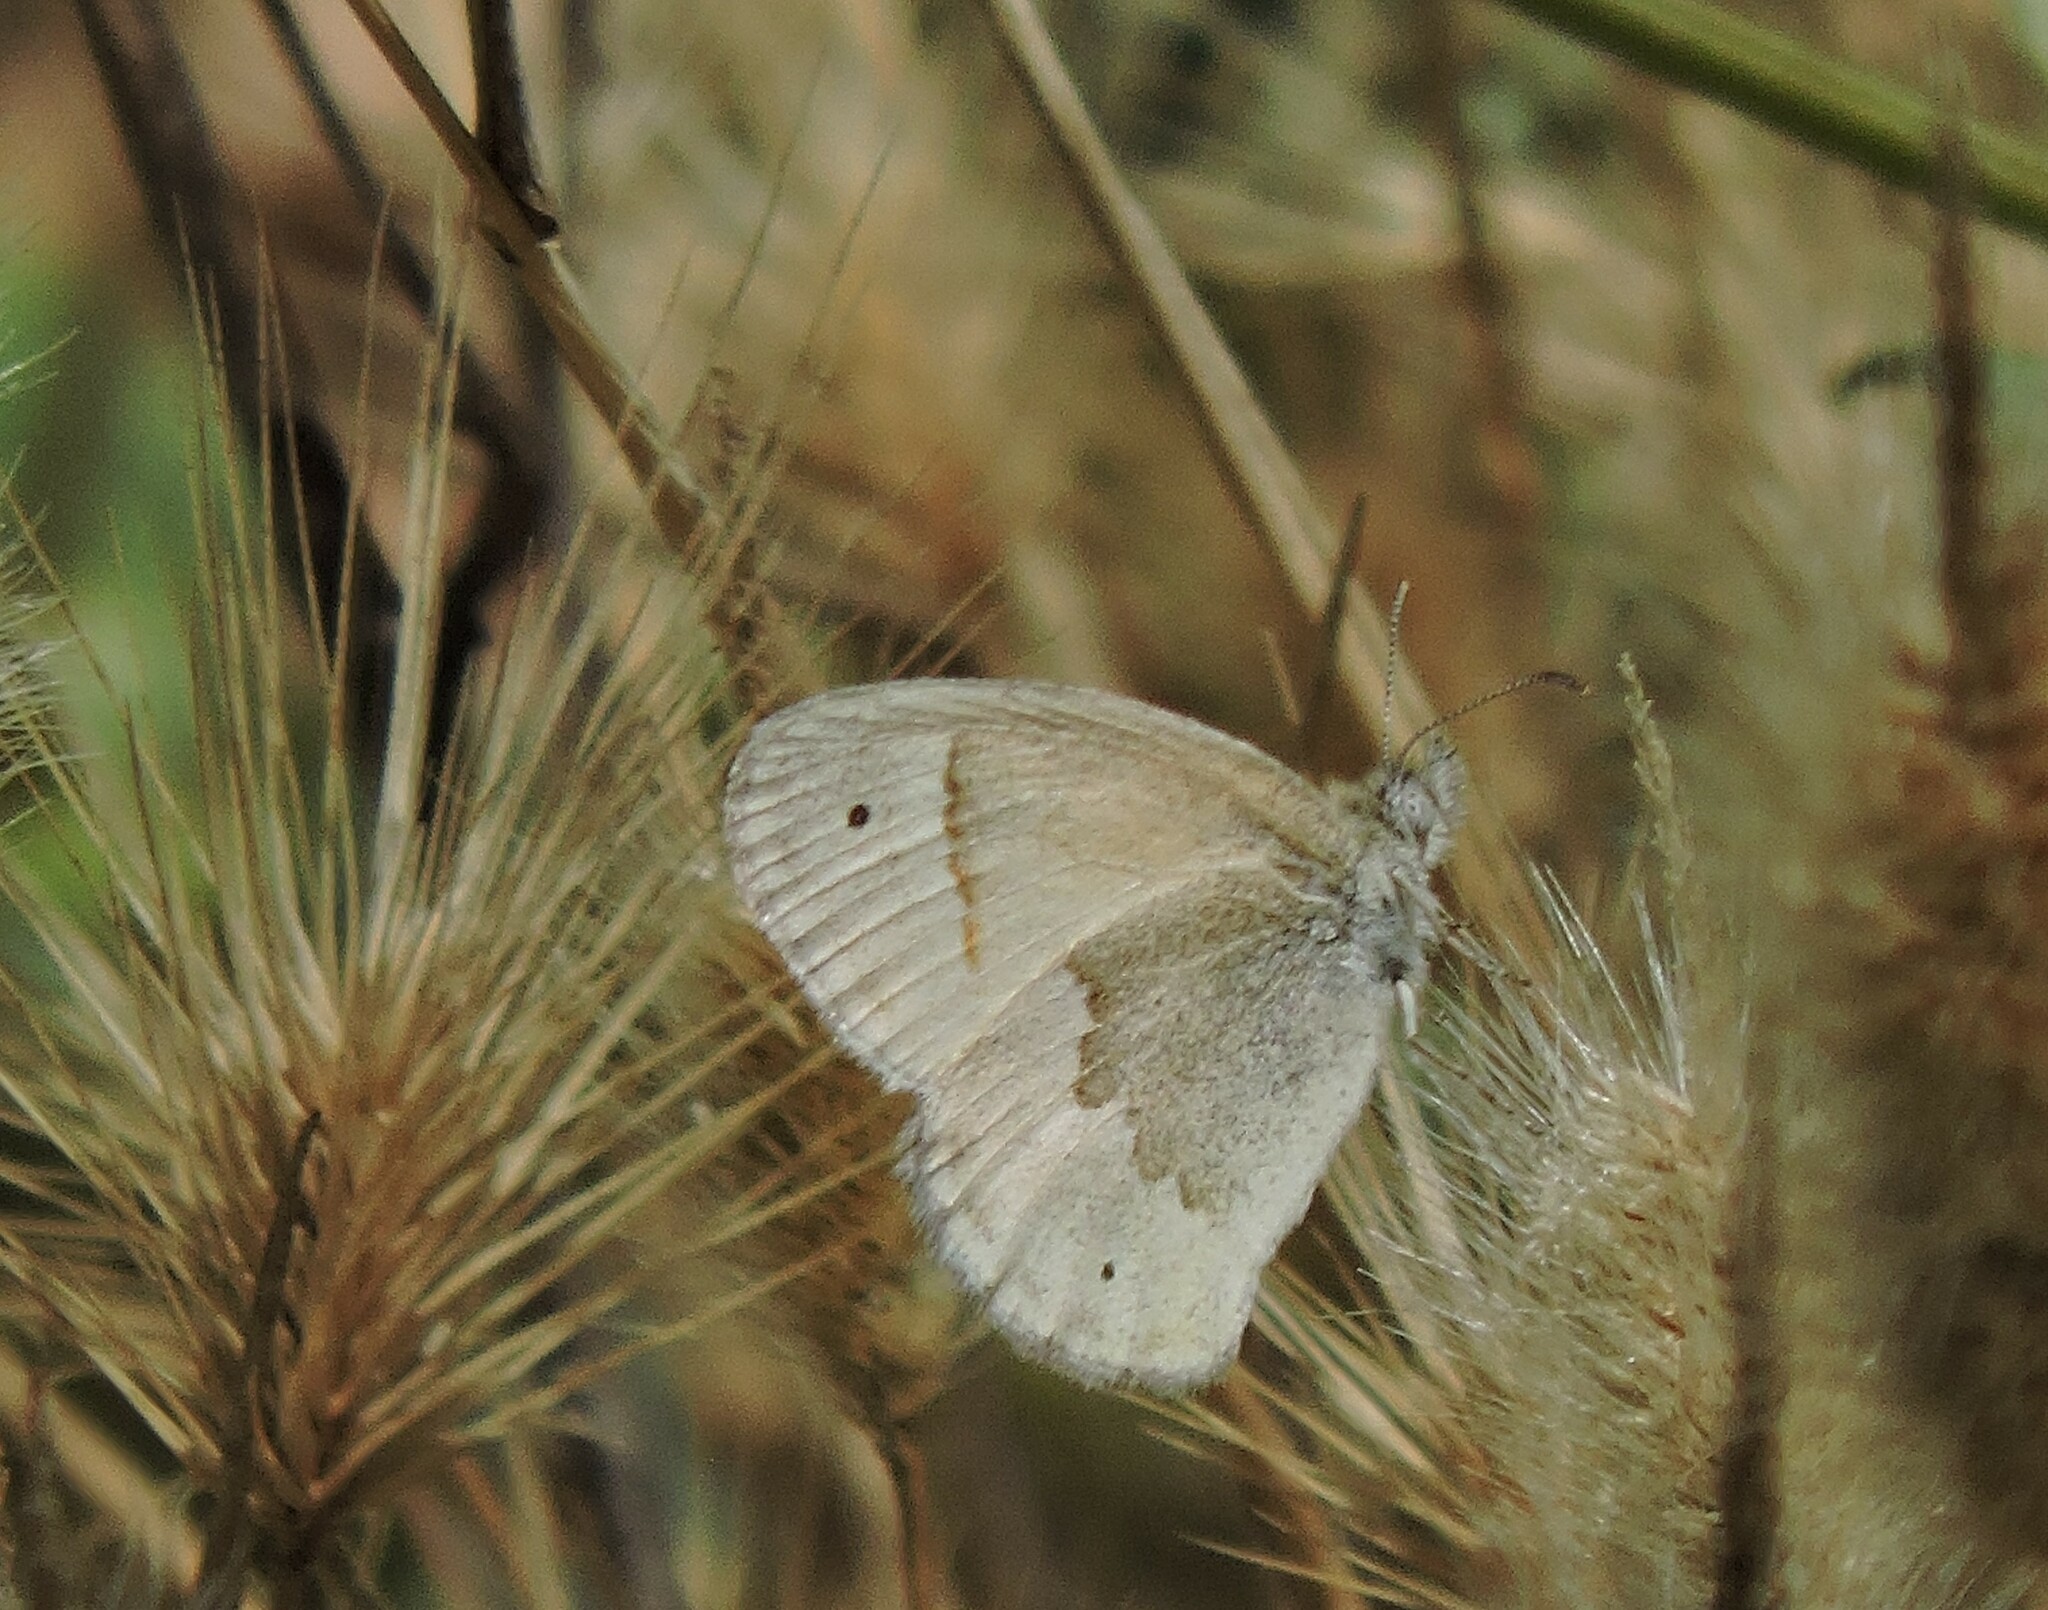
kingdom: Animalia
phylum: Arthropoda
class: Insecta
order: Lepidoptera
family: Nymphalidae
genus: Coenonympha
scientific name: Coenonympha california
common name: Common ringlet
